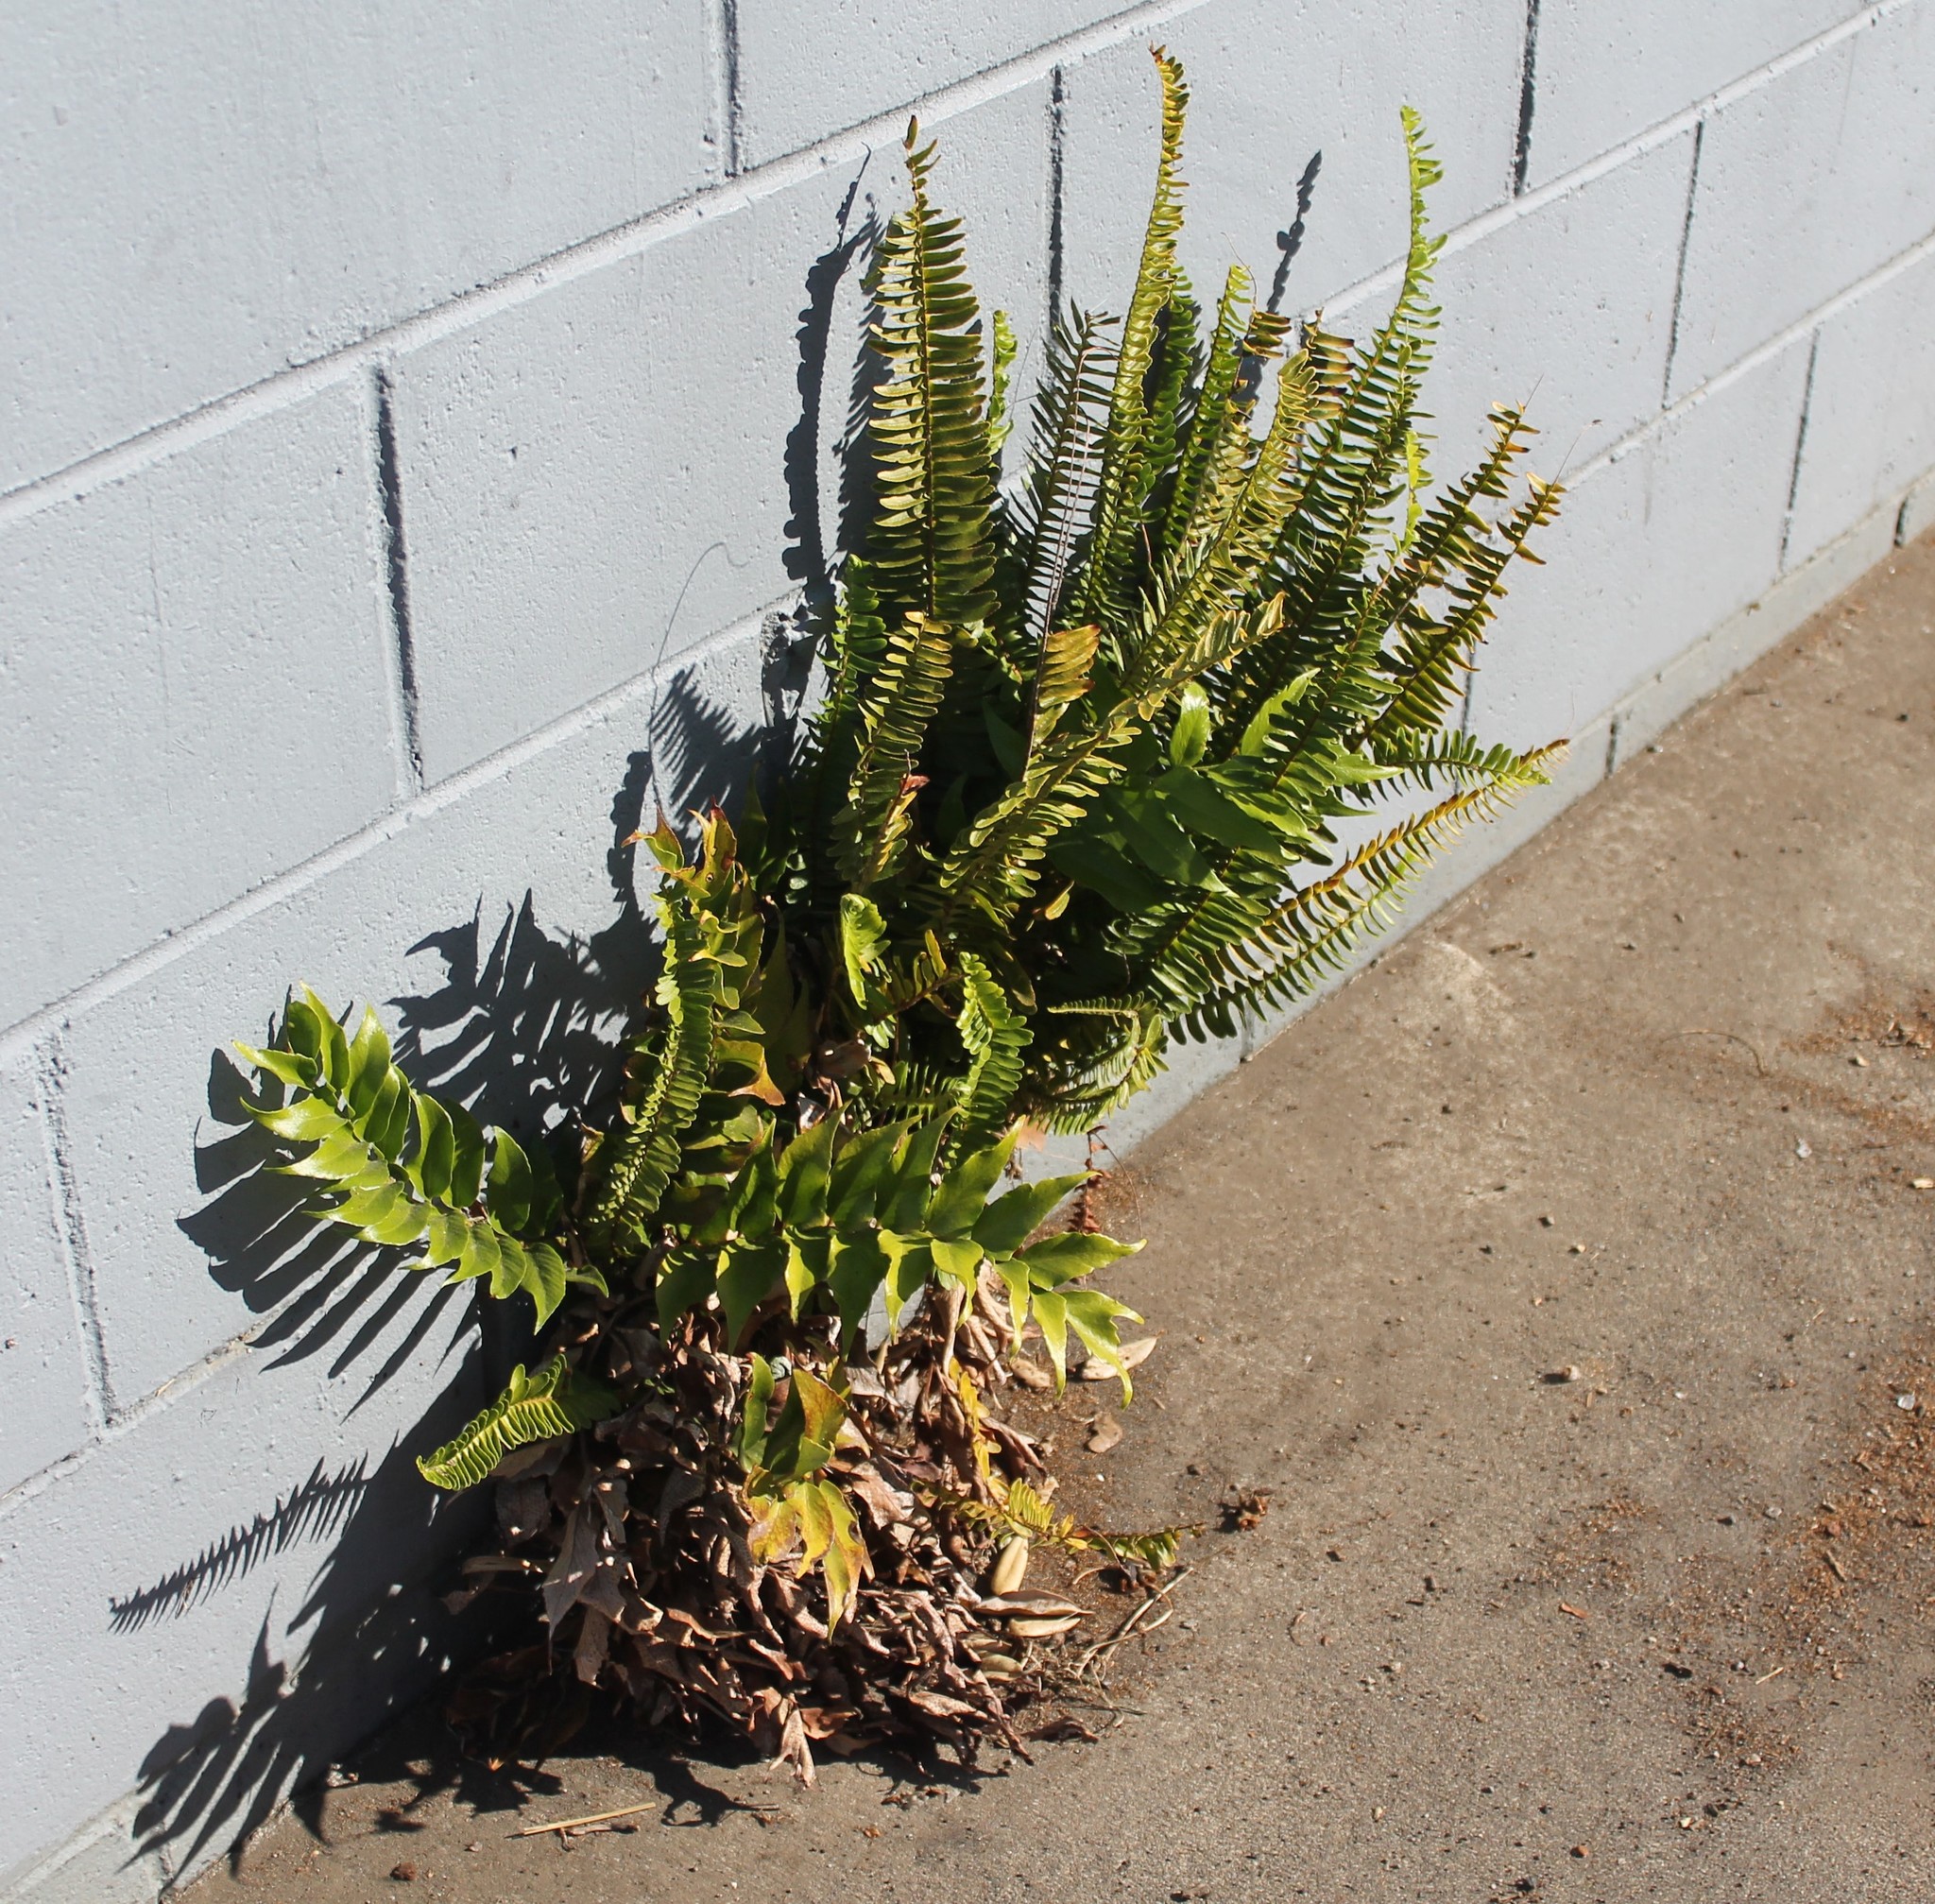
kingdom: Plantae
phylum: Tracheophyta
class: Polypodiopsida
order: Polypodiales
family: Nephrolepidaceae
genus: Nephrolepis
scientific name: Nephrolepis cordifolia
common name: Narrow swordfern
